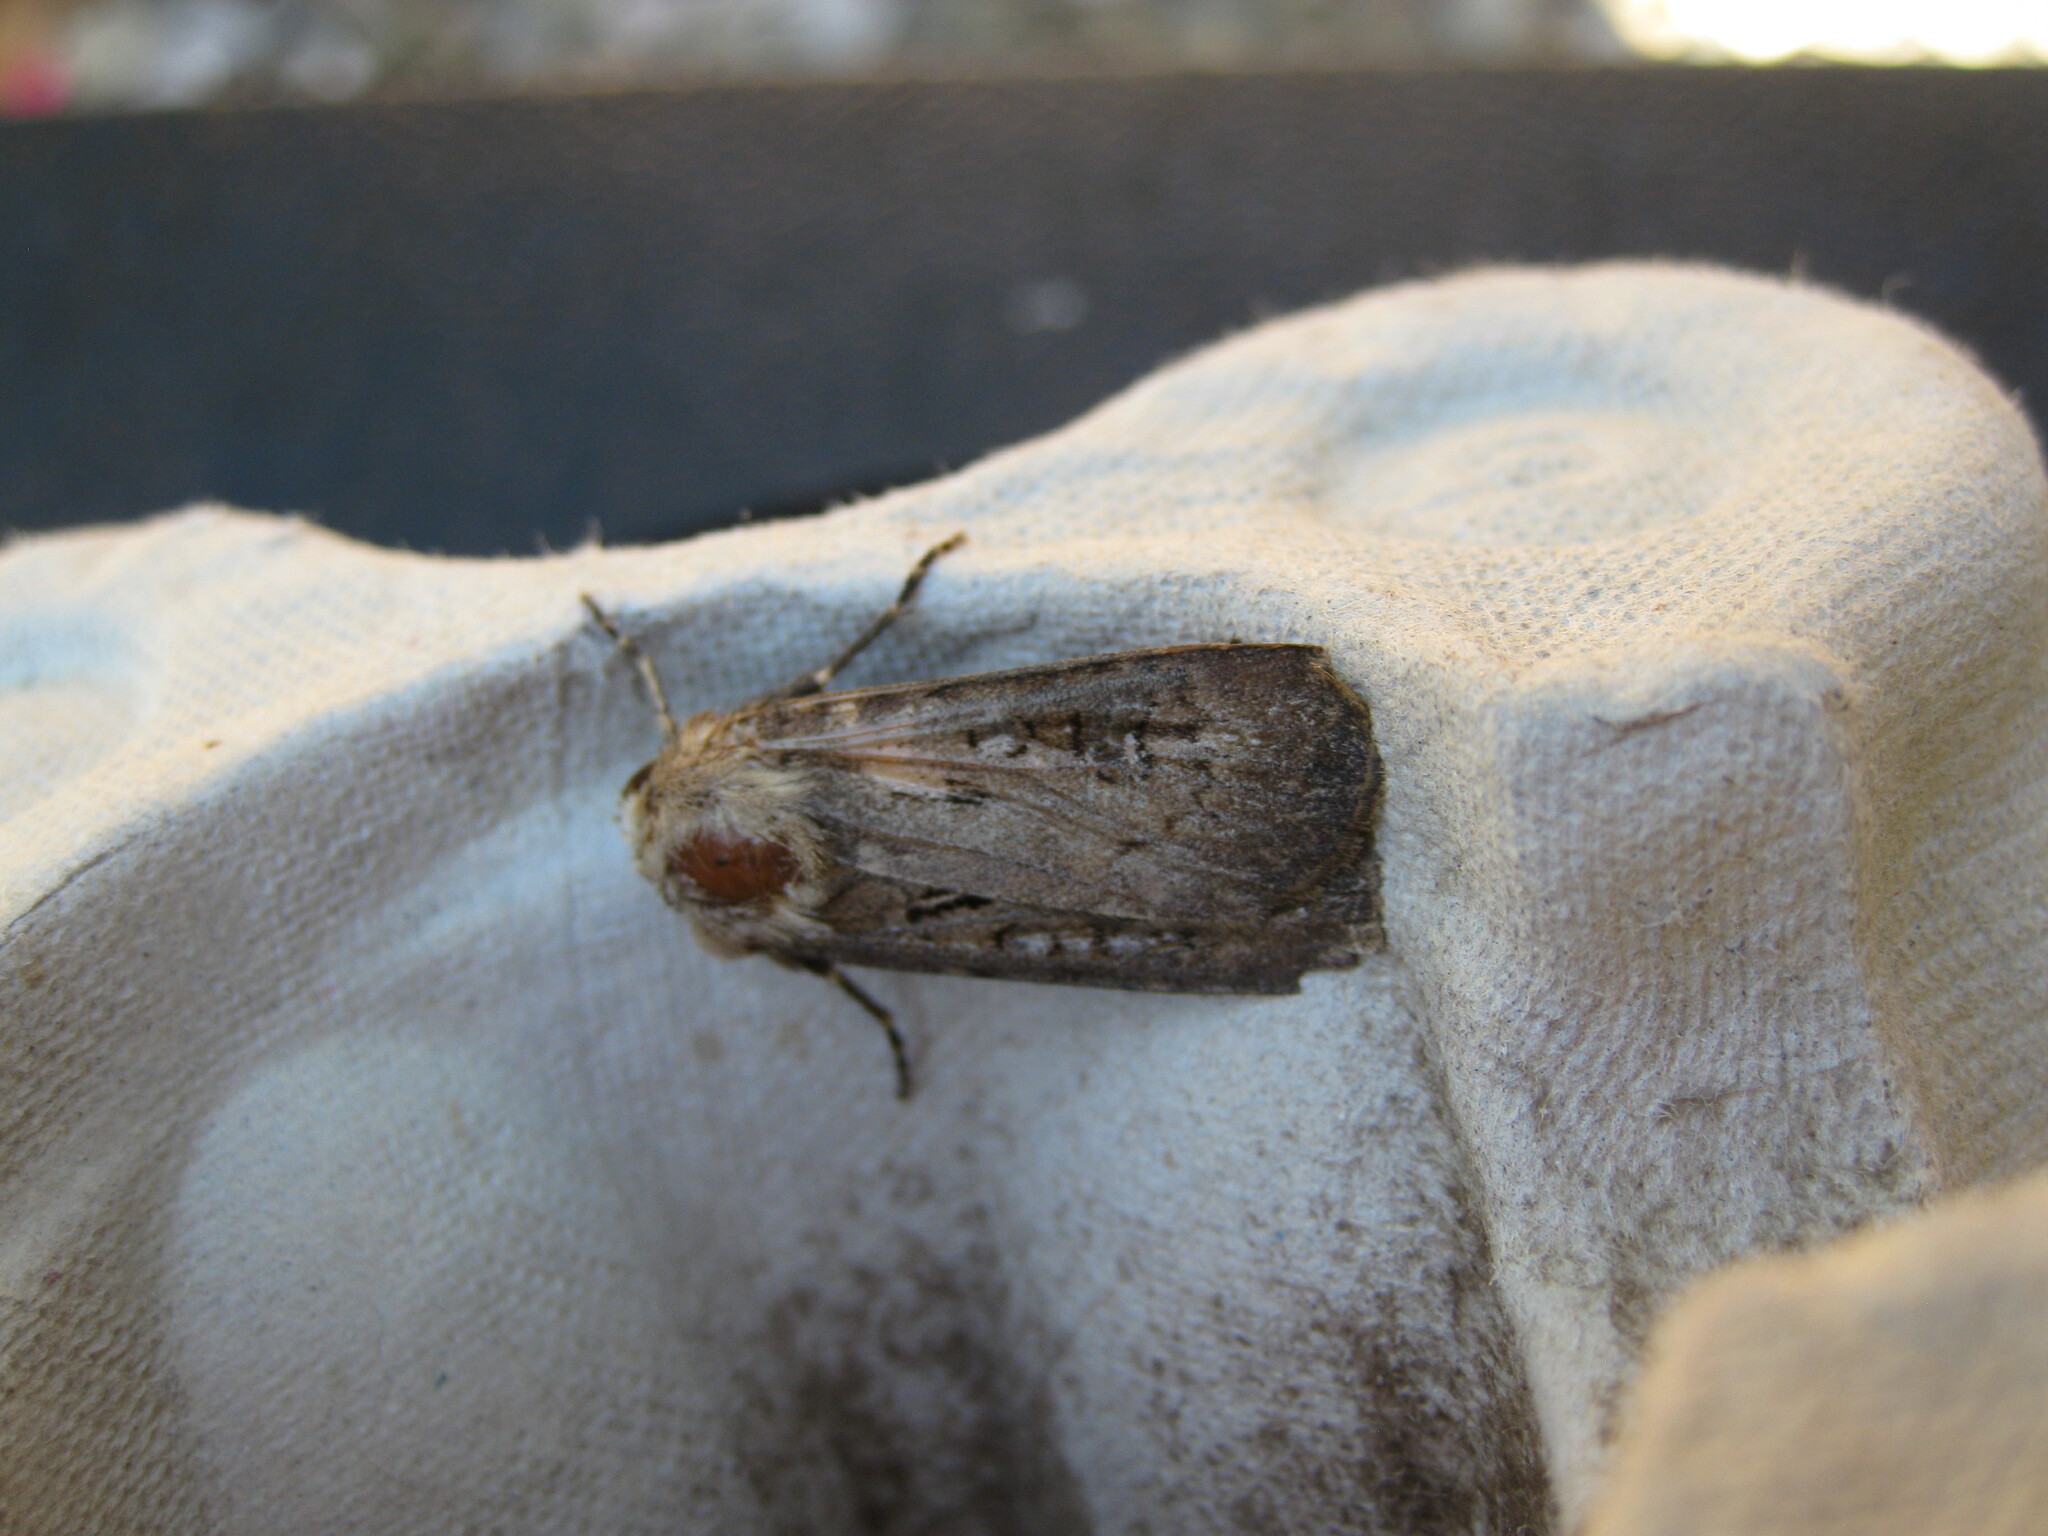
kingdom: Animalia
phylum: Arthropoda
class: Insecta
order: Lepidoptera
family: Noctuidae
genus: Agrotis
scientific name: Agrotis exclamationis
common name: Heart and dart
